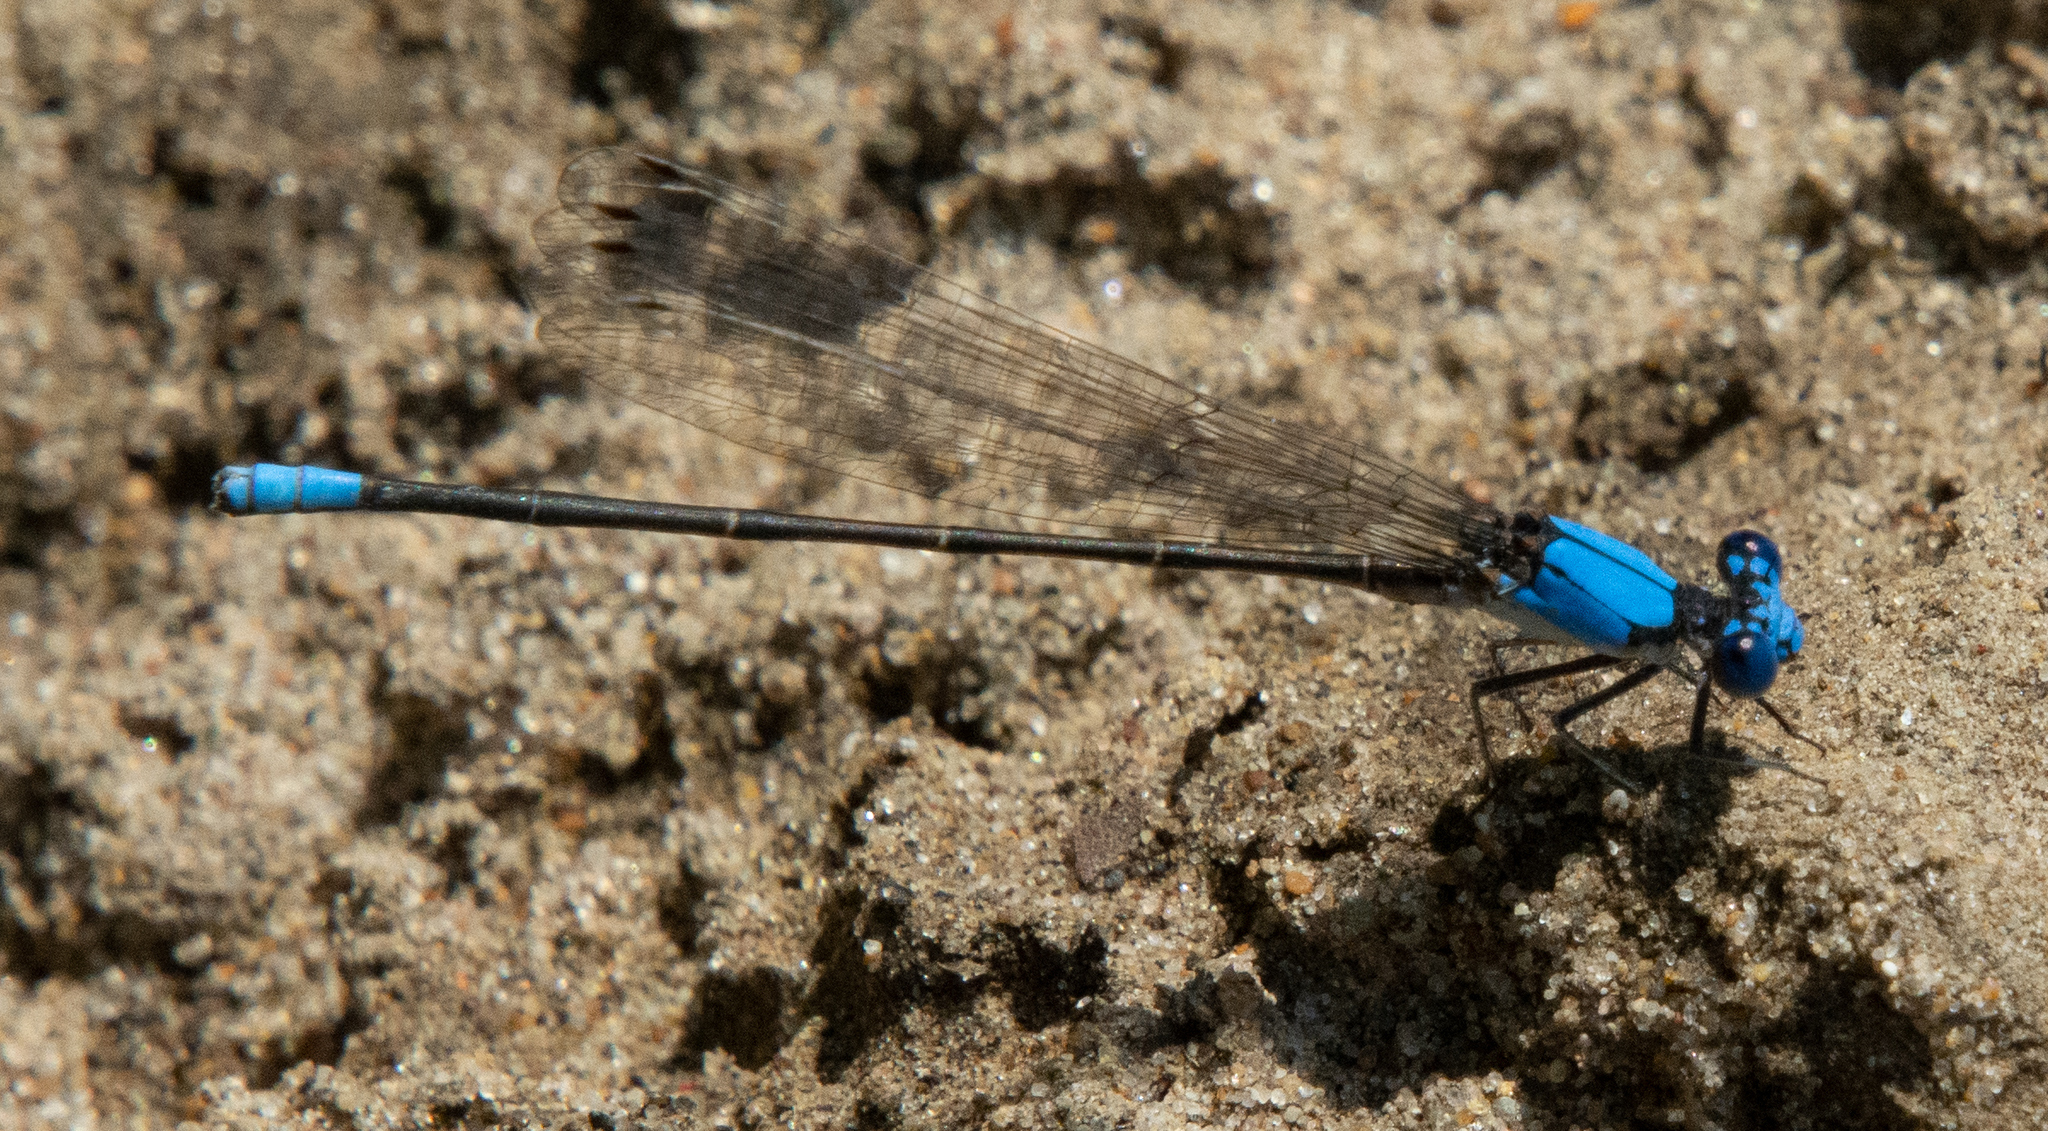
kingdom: Animalia
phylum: Arthropoda
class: Insecta
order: Odonata
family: Coenagrionidae
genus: Argia
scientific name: Argia apicalis
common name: Blue-fronted dancer
